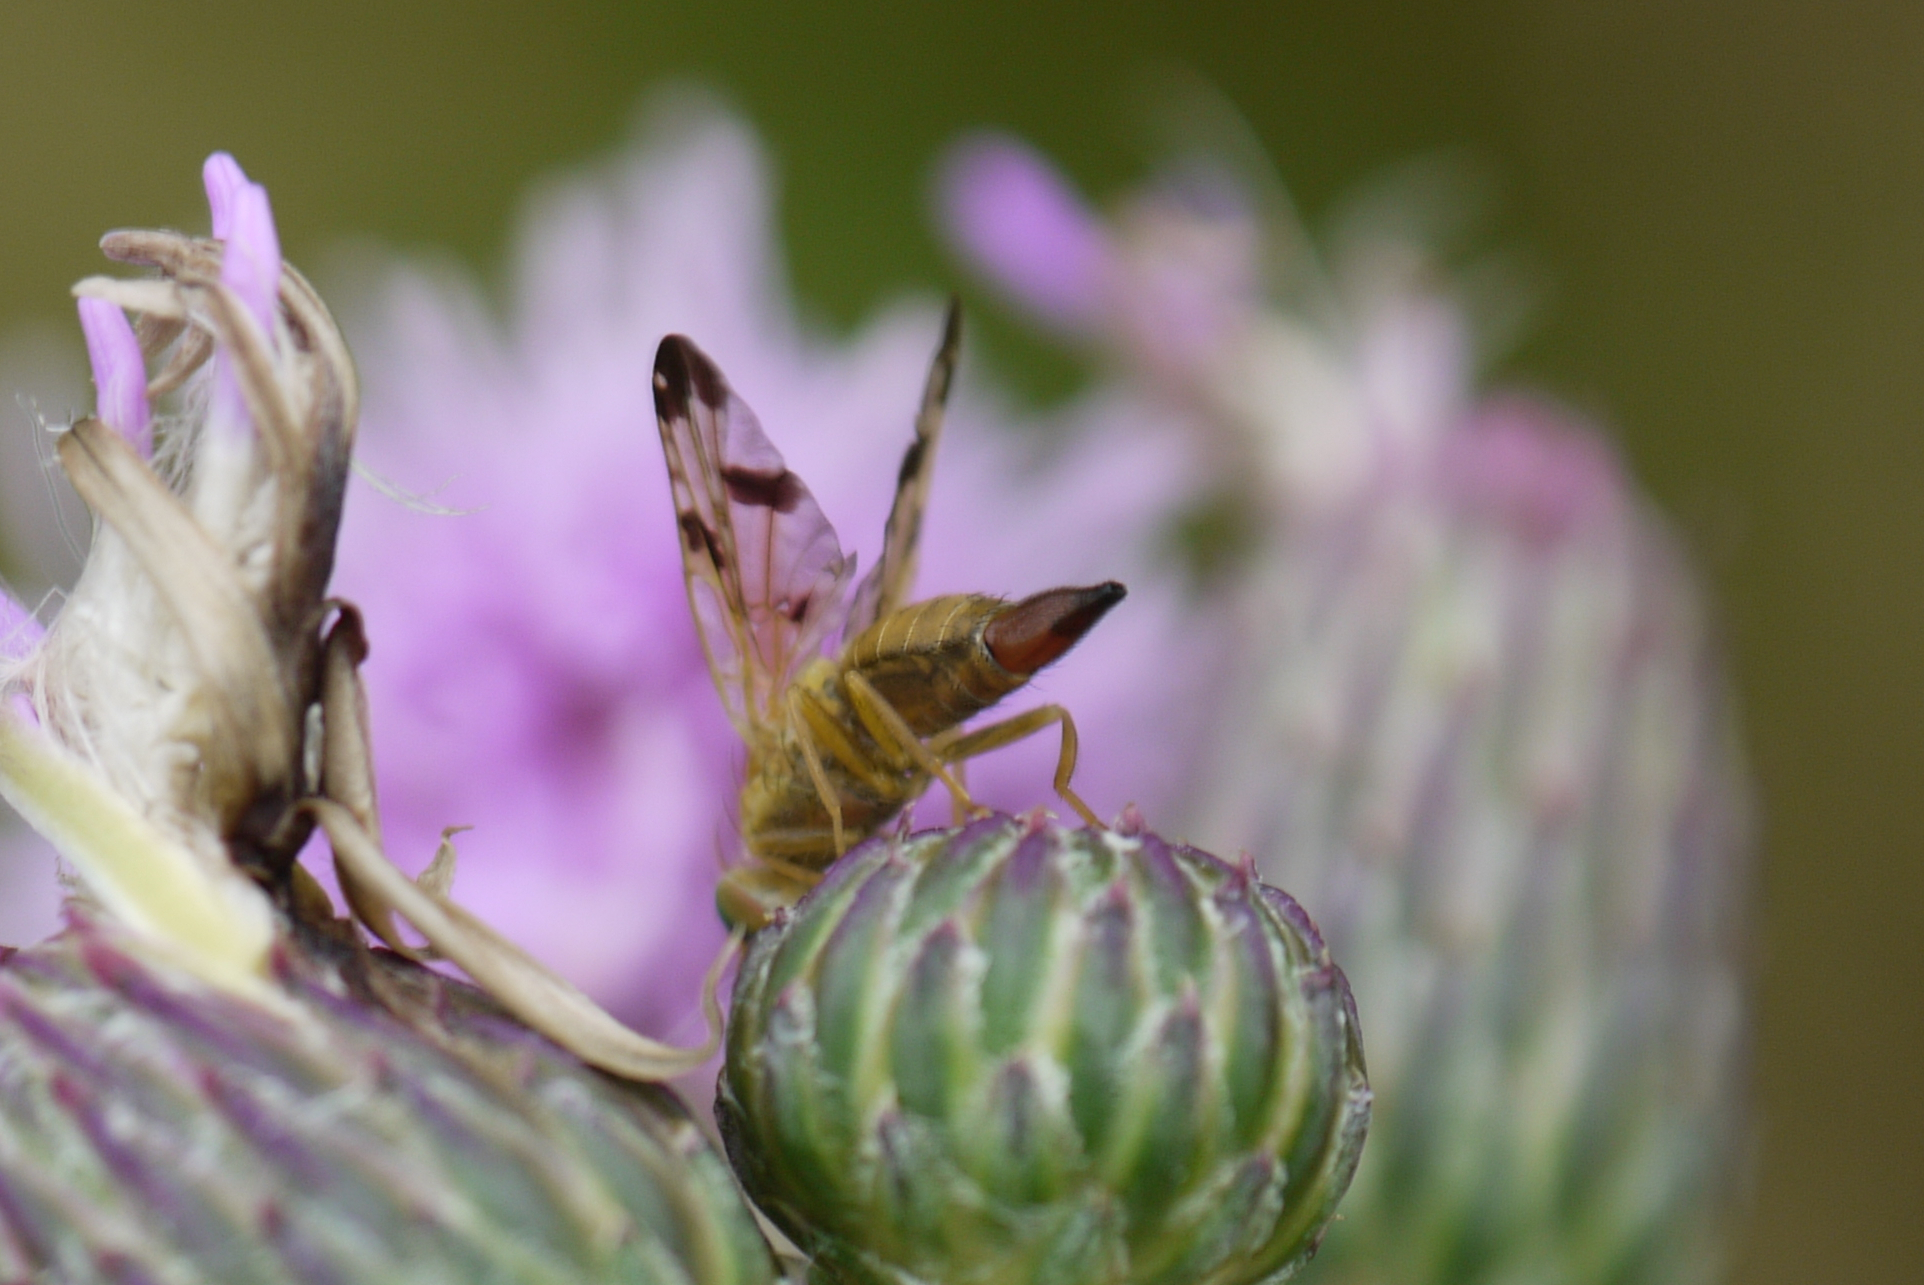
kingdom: Animalia
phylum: Arthropoda
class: Insecta
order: Diptera
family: Tephritidae
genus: Xyphosia
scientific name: Xyphosia miliaria
